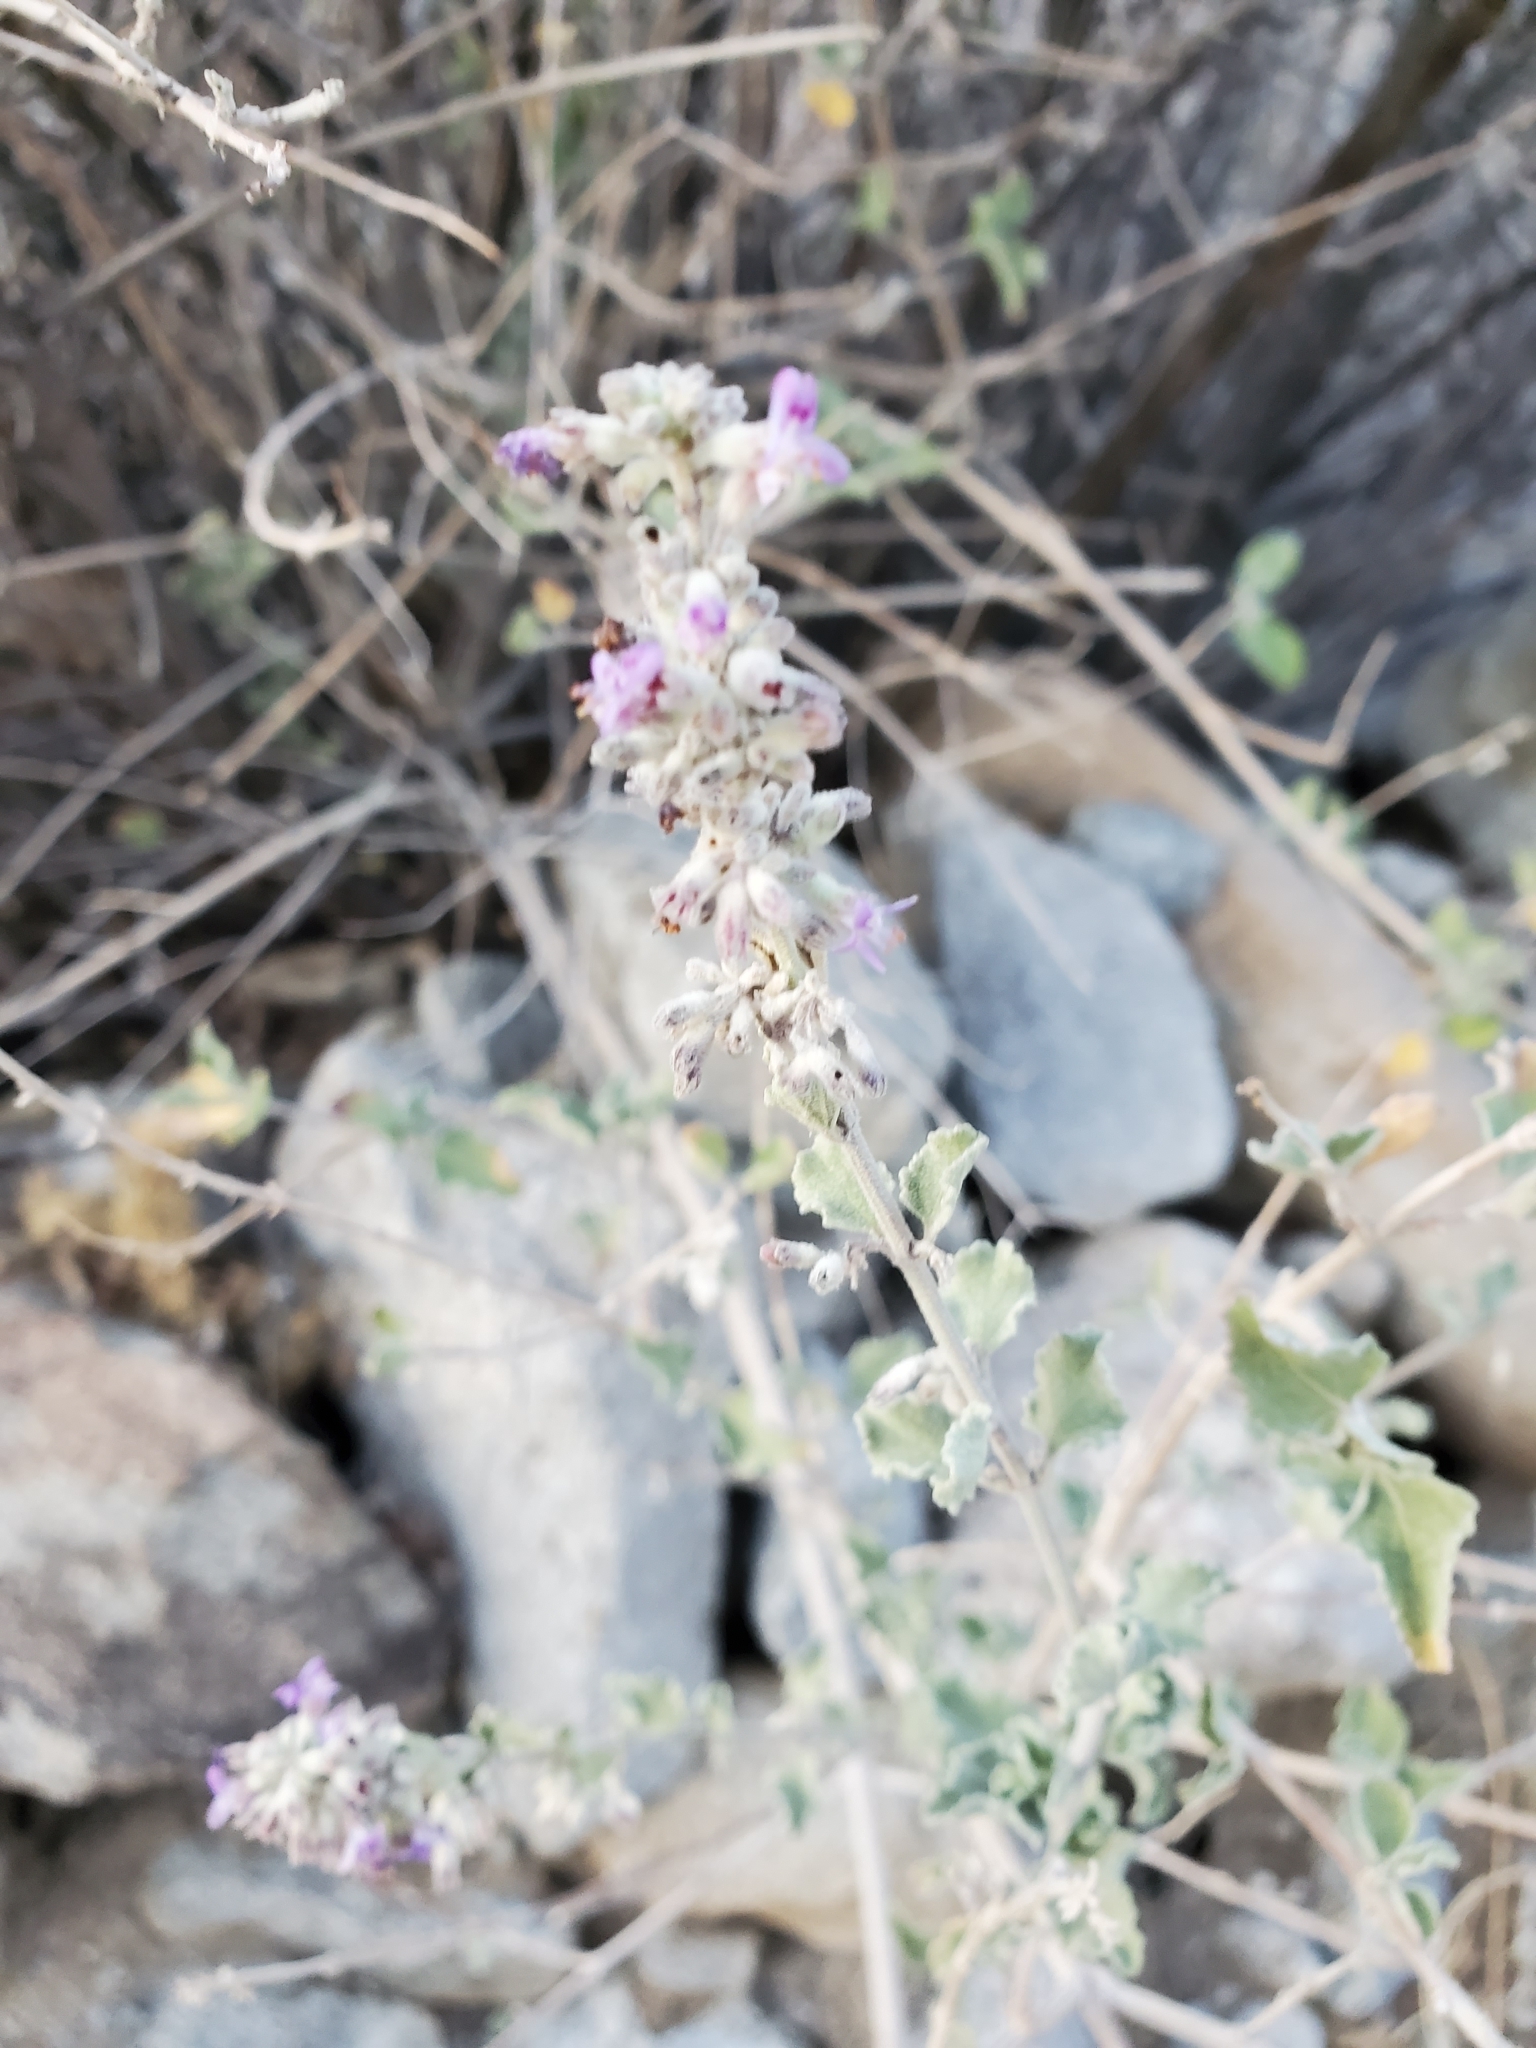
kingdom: Plantae
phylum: Tracheophyta
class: Magnoliopsida
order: Lamiales
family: Lamiaceae
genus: Condea
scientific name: Condea emoryi
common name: Chia
